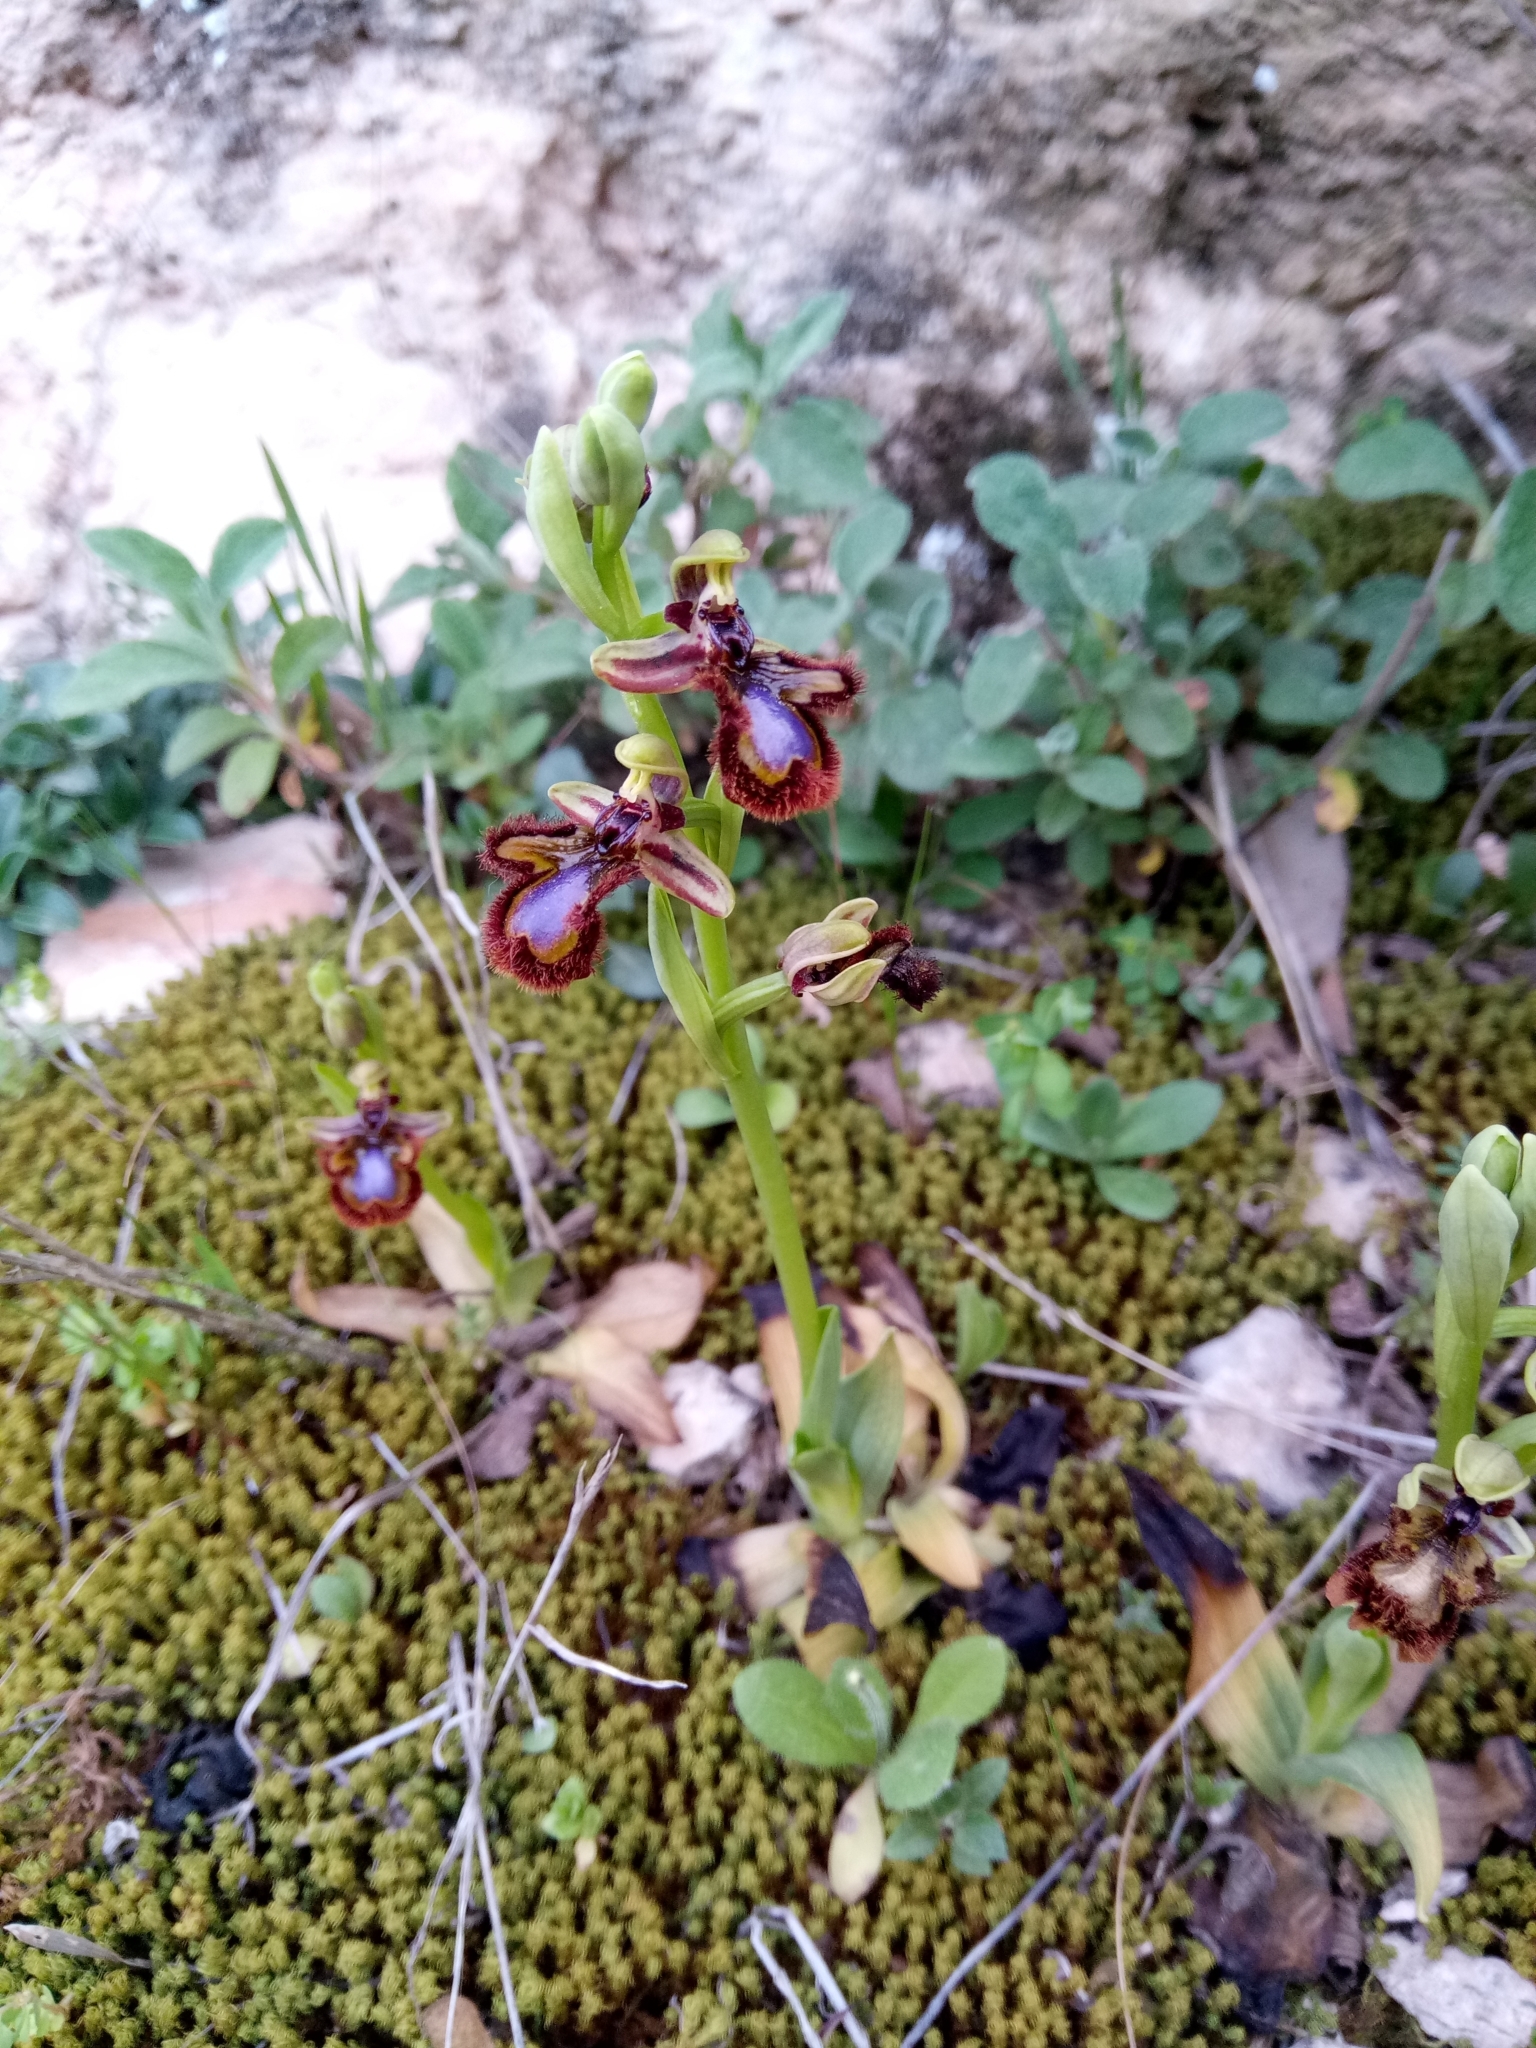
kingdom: Plantae
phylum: Tracheophyta
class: Liliopsida
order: Asparagales
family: Orchidaceae
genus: Ophrys
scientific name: Ophrys speculum
